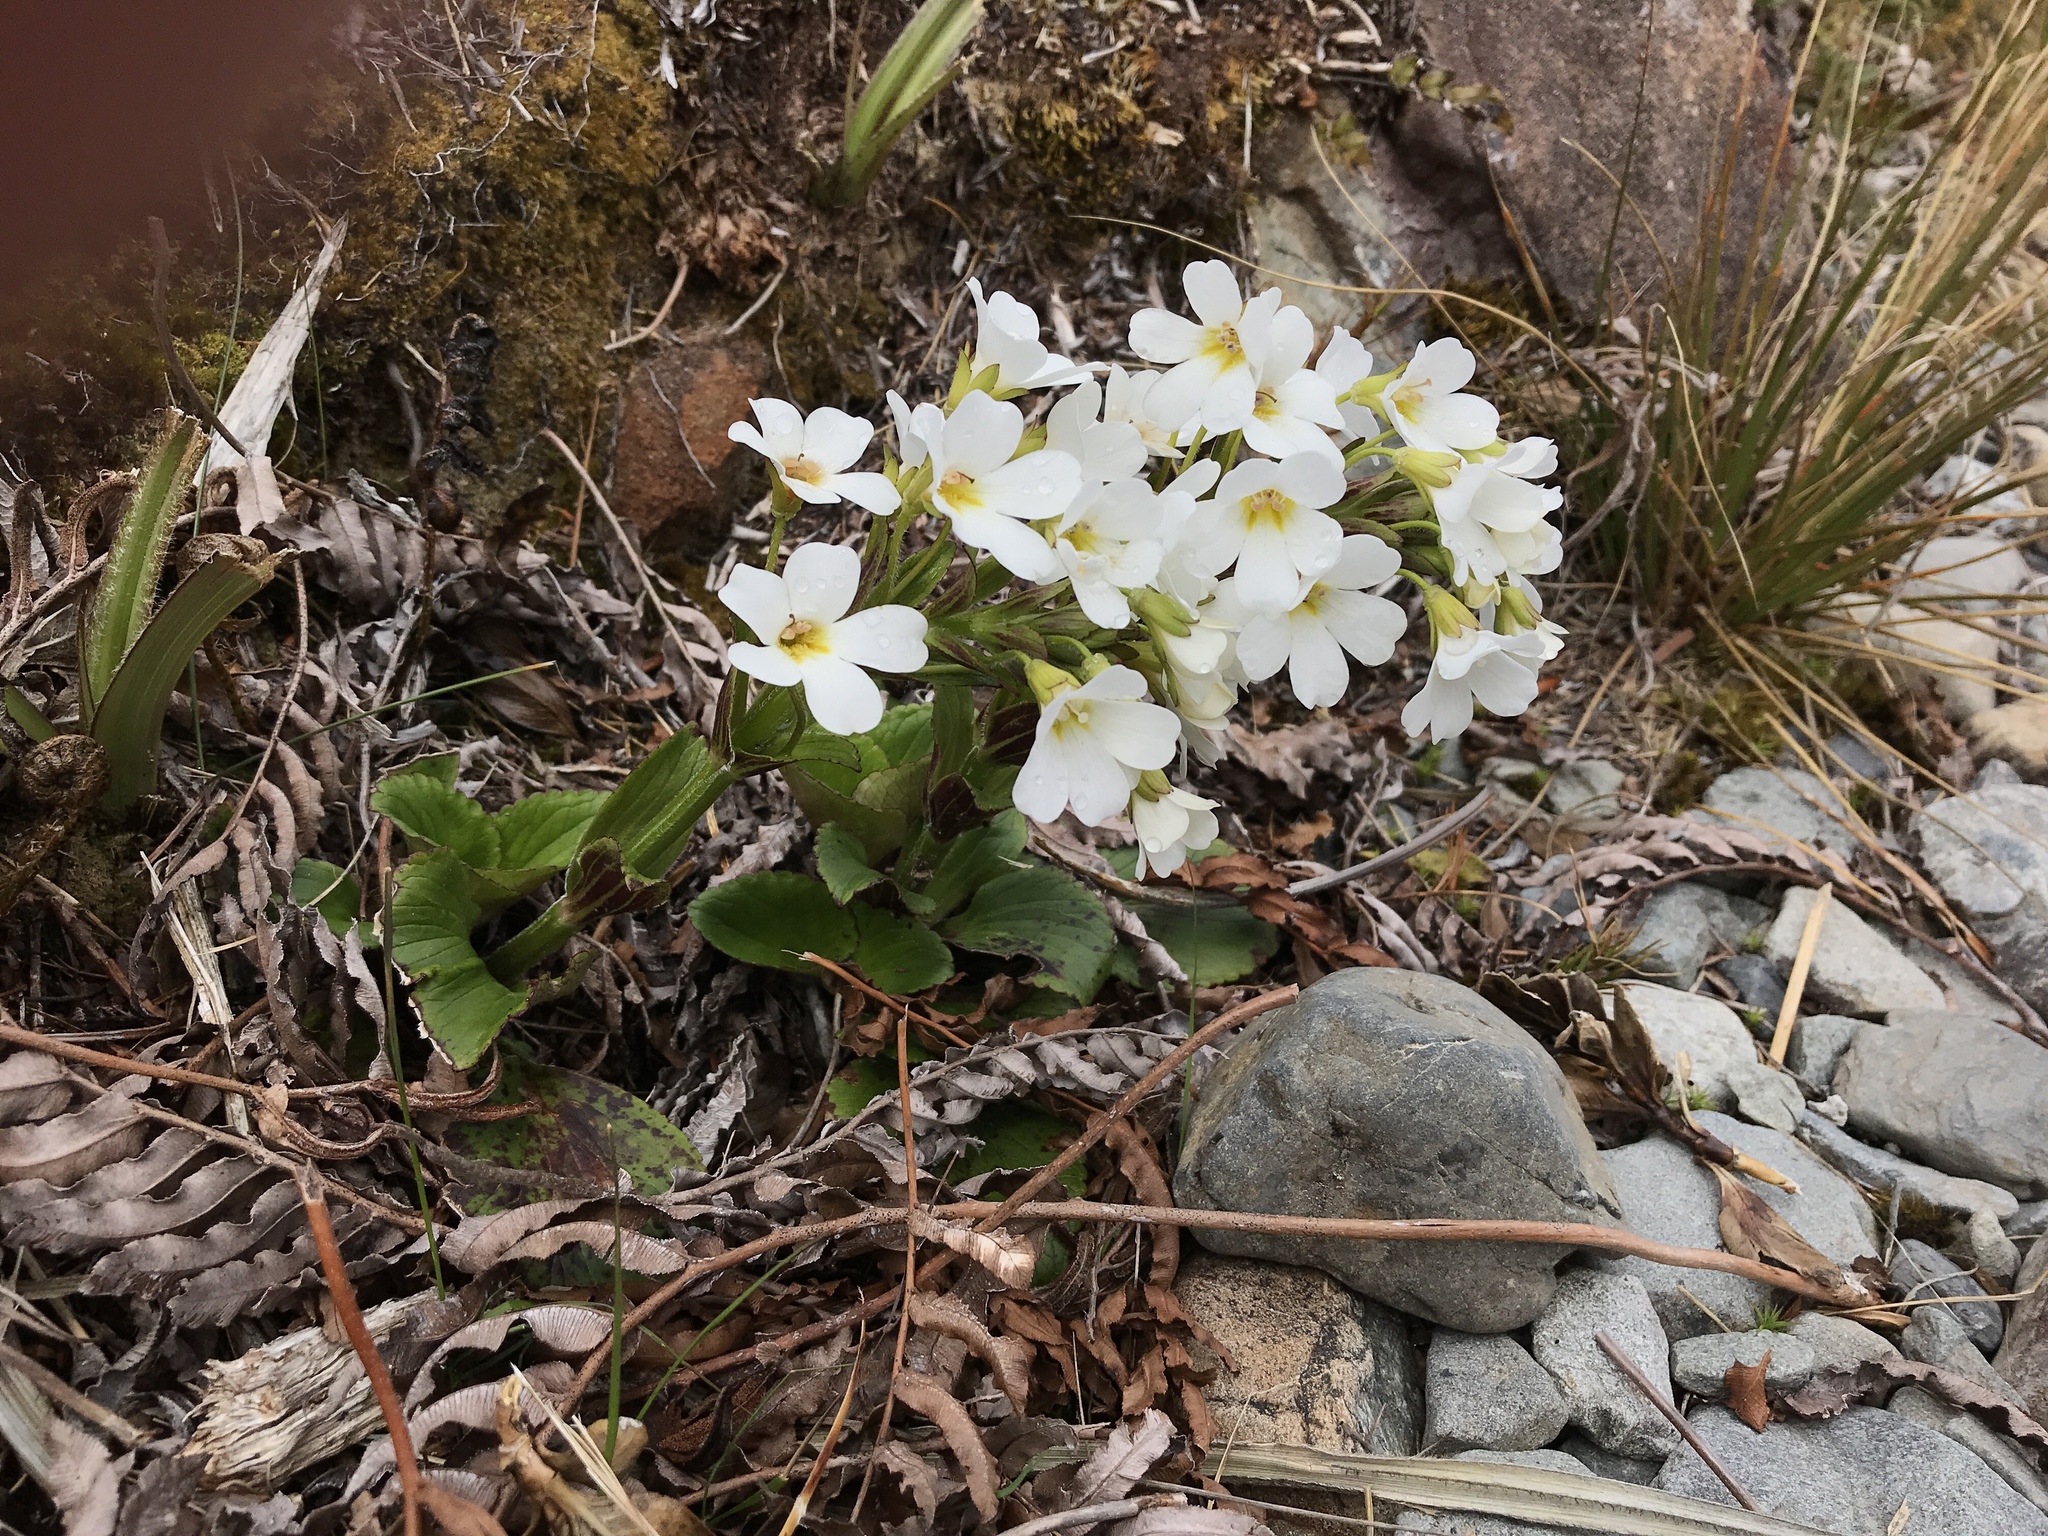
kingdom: Plantae
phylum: Tracheophyta
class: Magnoliopsida
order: Lamiales
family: Plantaginaceae
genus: Ourisia
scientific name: Ourisia calycina
